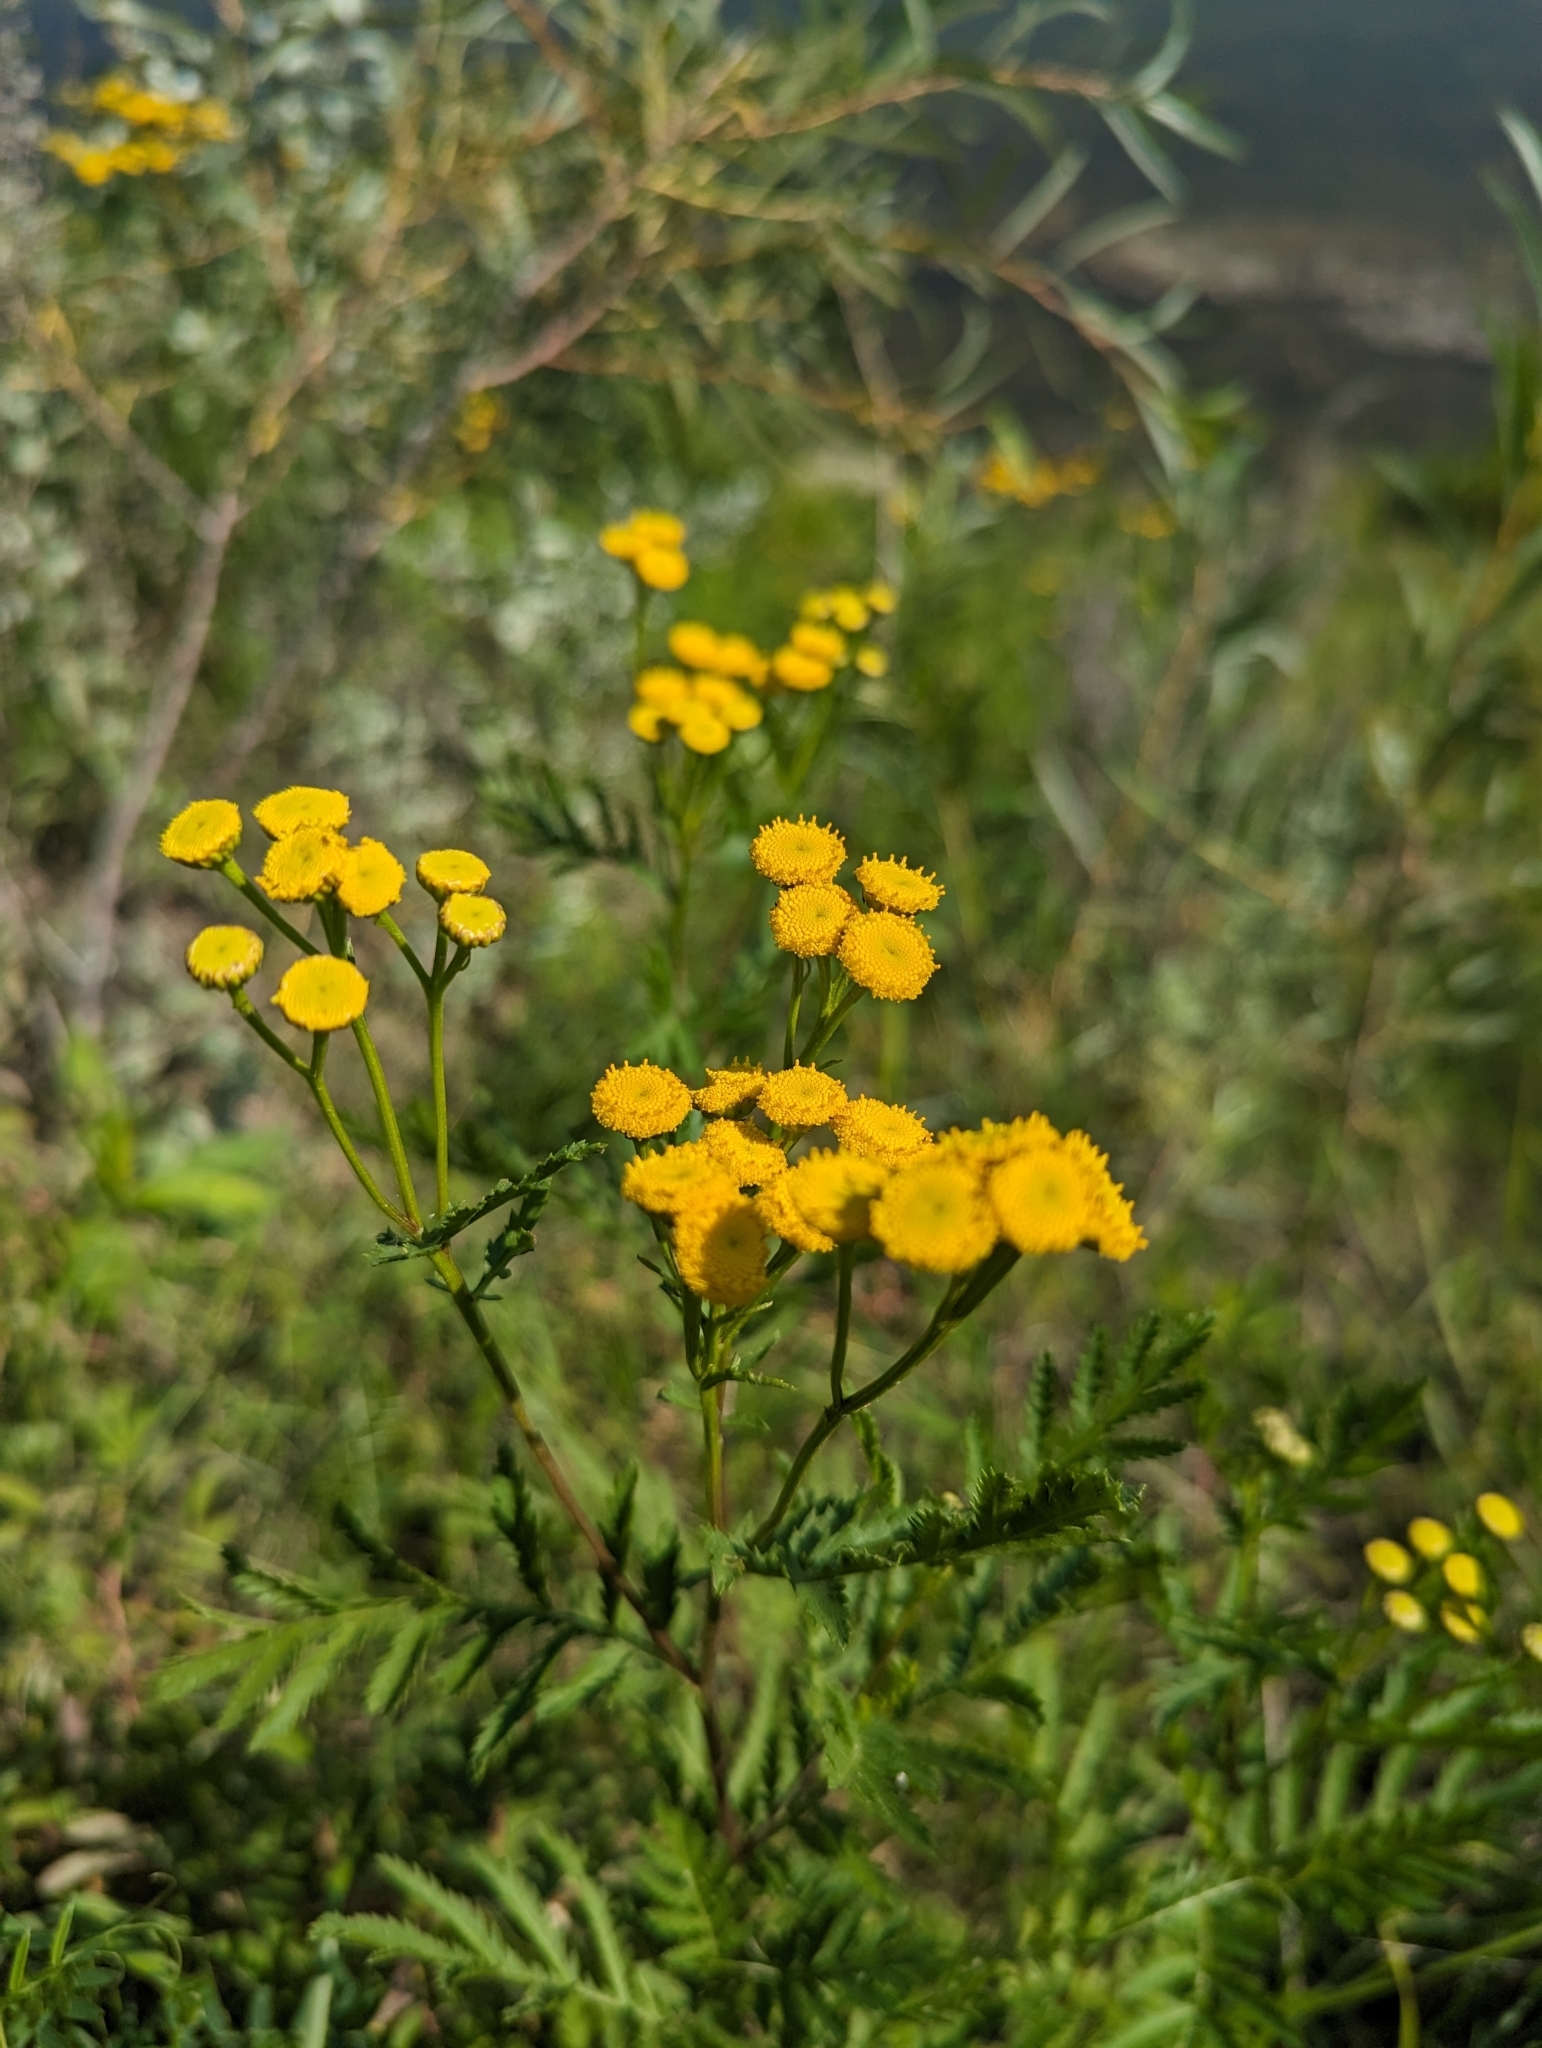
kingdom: Plantae
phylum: Tracheophyta
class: Magnoliopsida
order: Asterales
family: Asteraceae
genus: Tanacetum
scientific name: Tanacetum vulgare
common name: Common tansy
